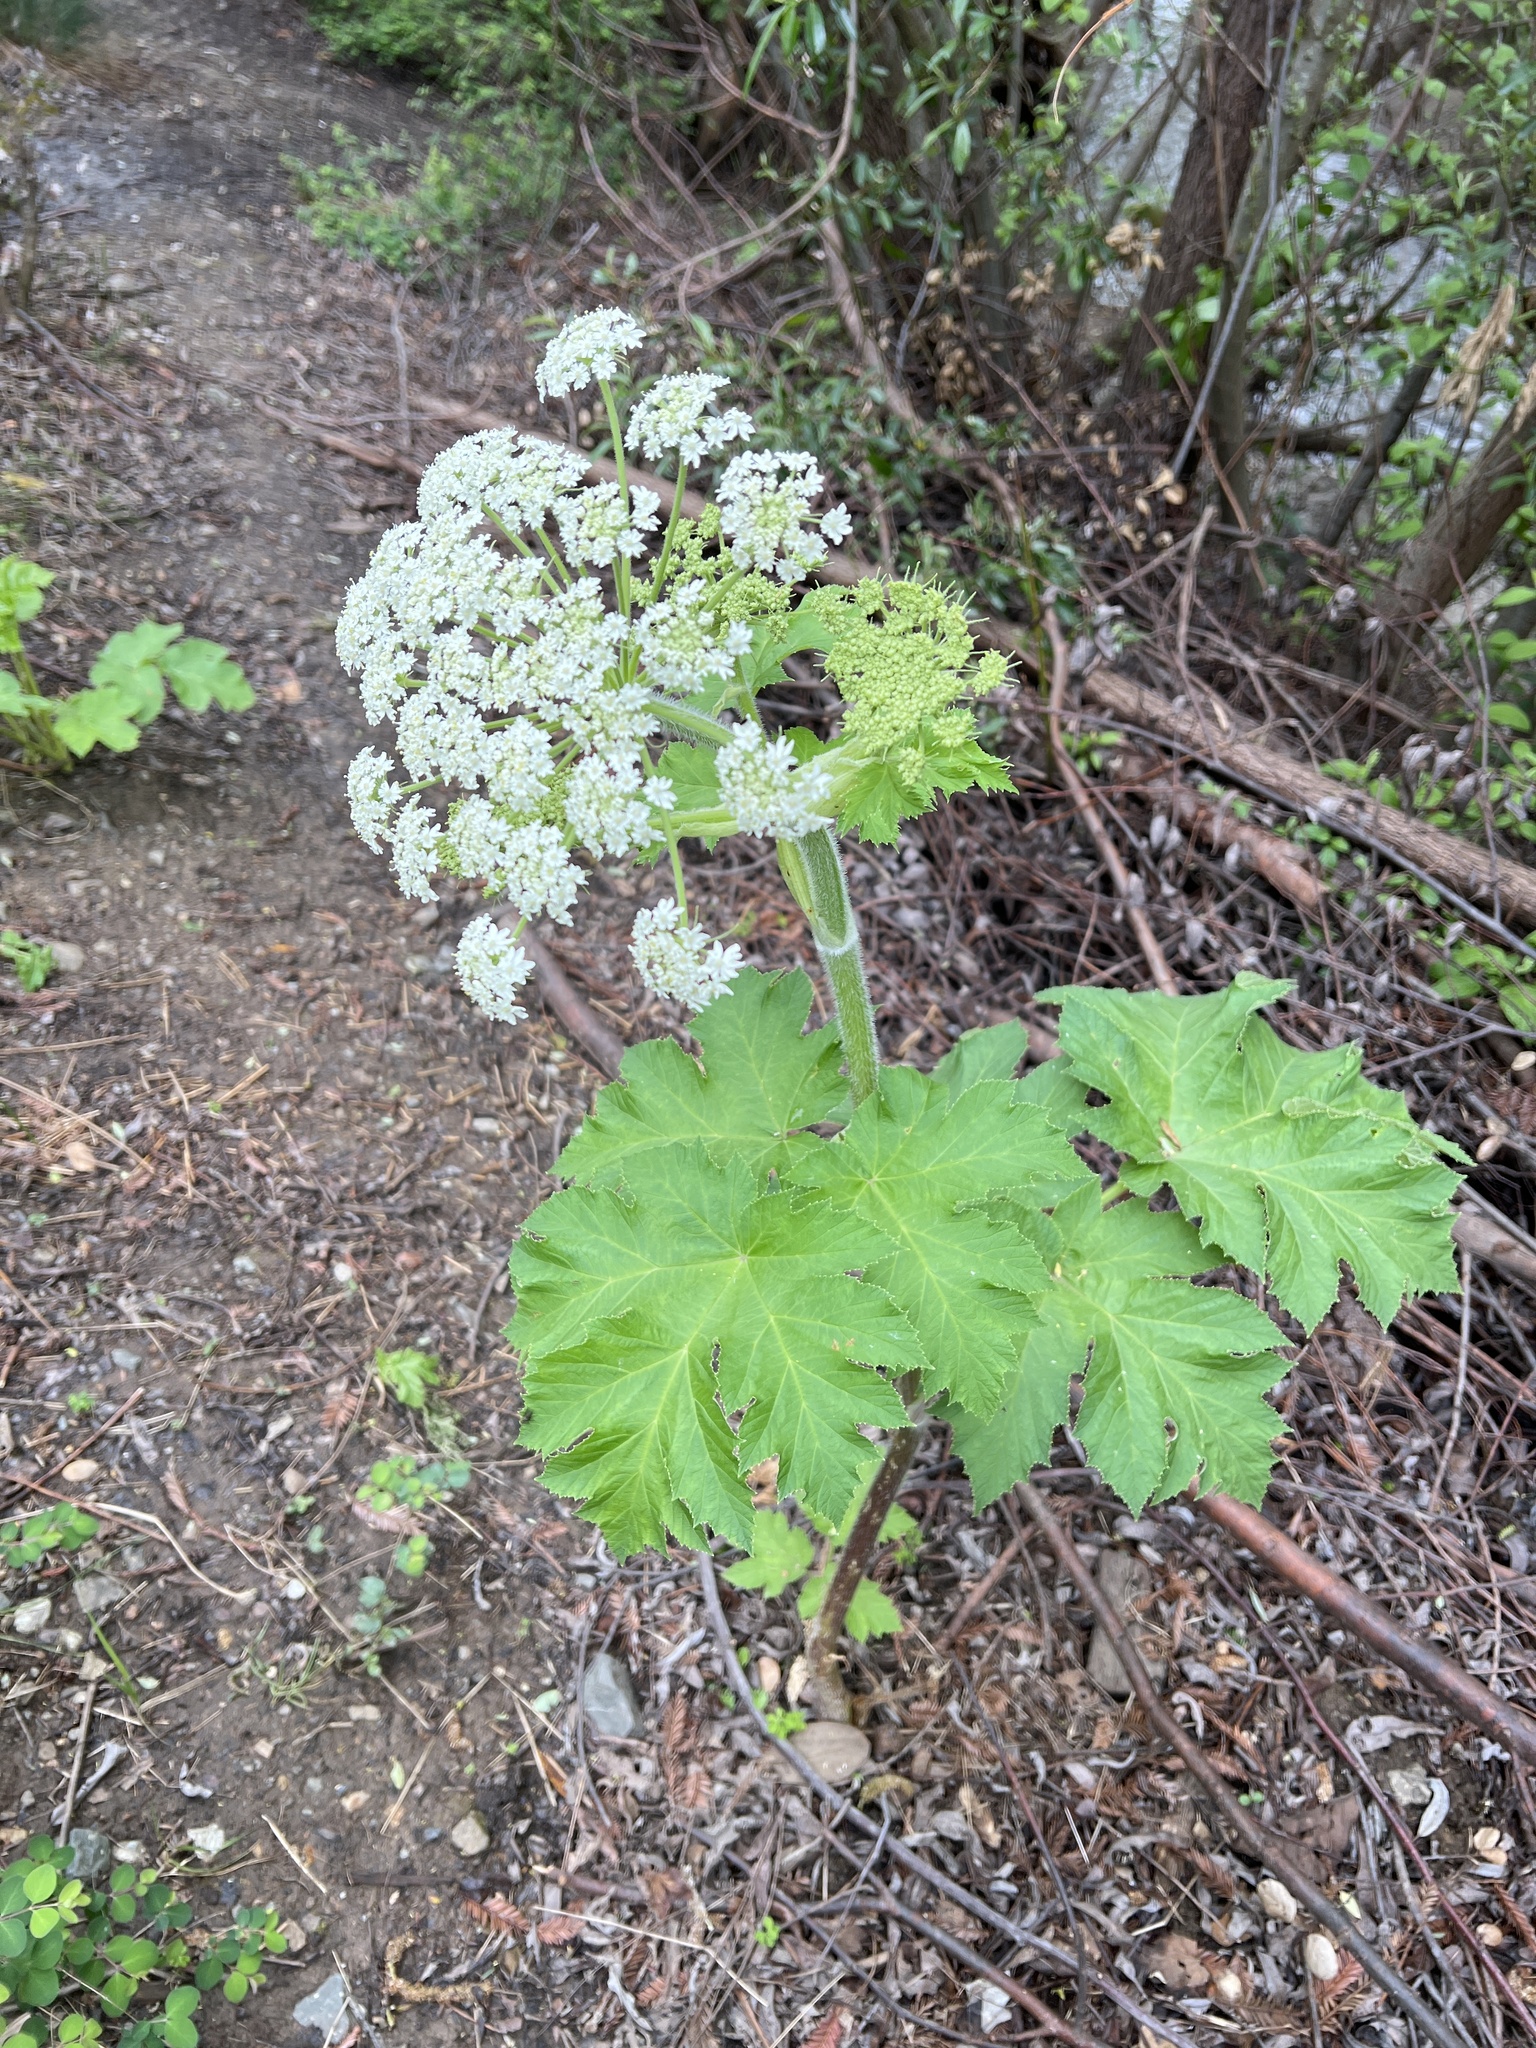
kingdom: Plantae
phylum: Tracheophyta
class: Magnoliopsida
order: Apiales
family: Apiaceae
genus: Heracleum
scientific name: Heracleum maximum
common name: American cow parsnip
